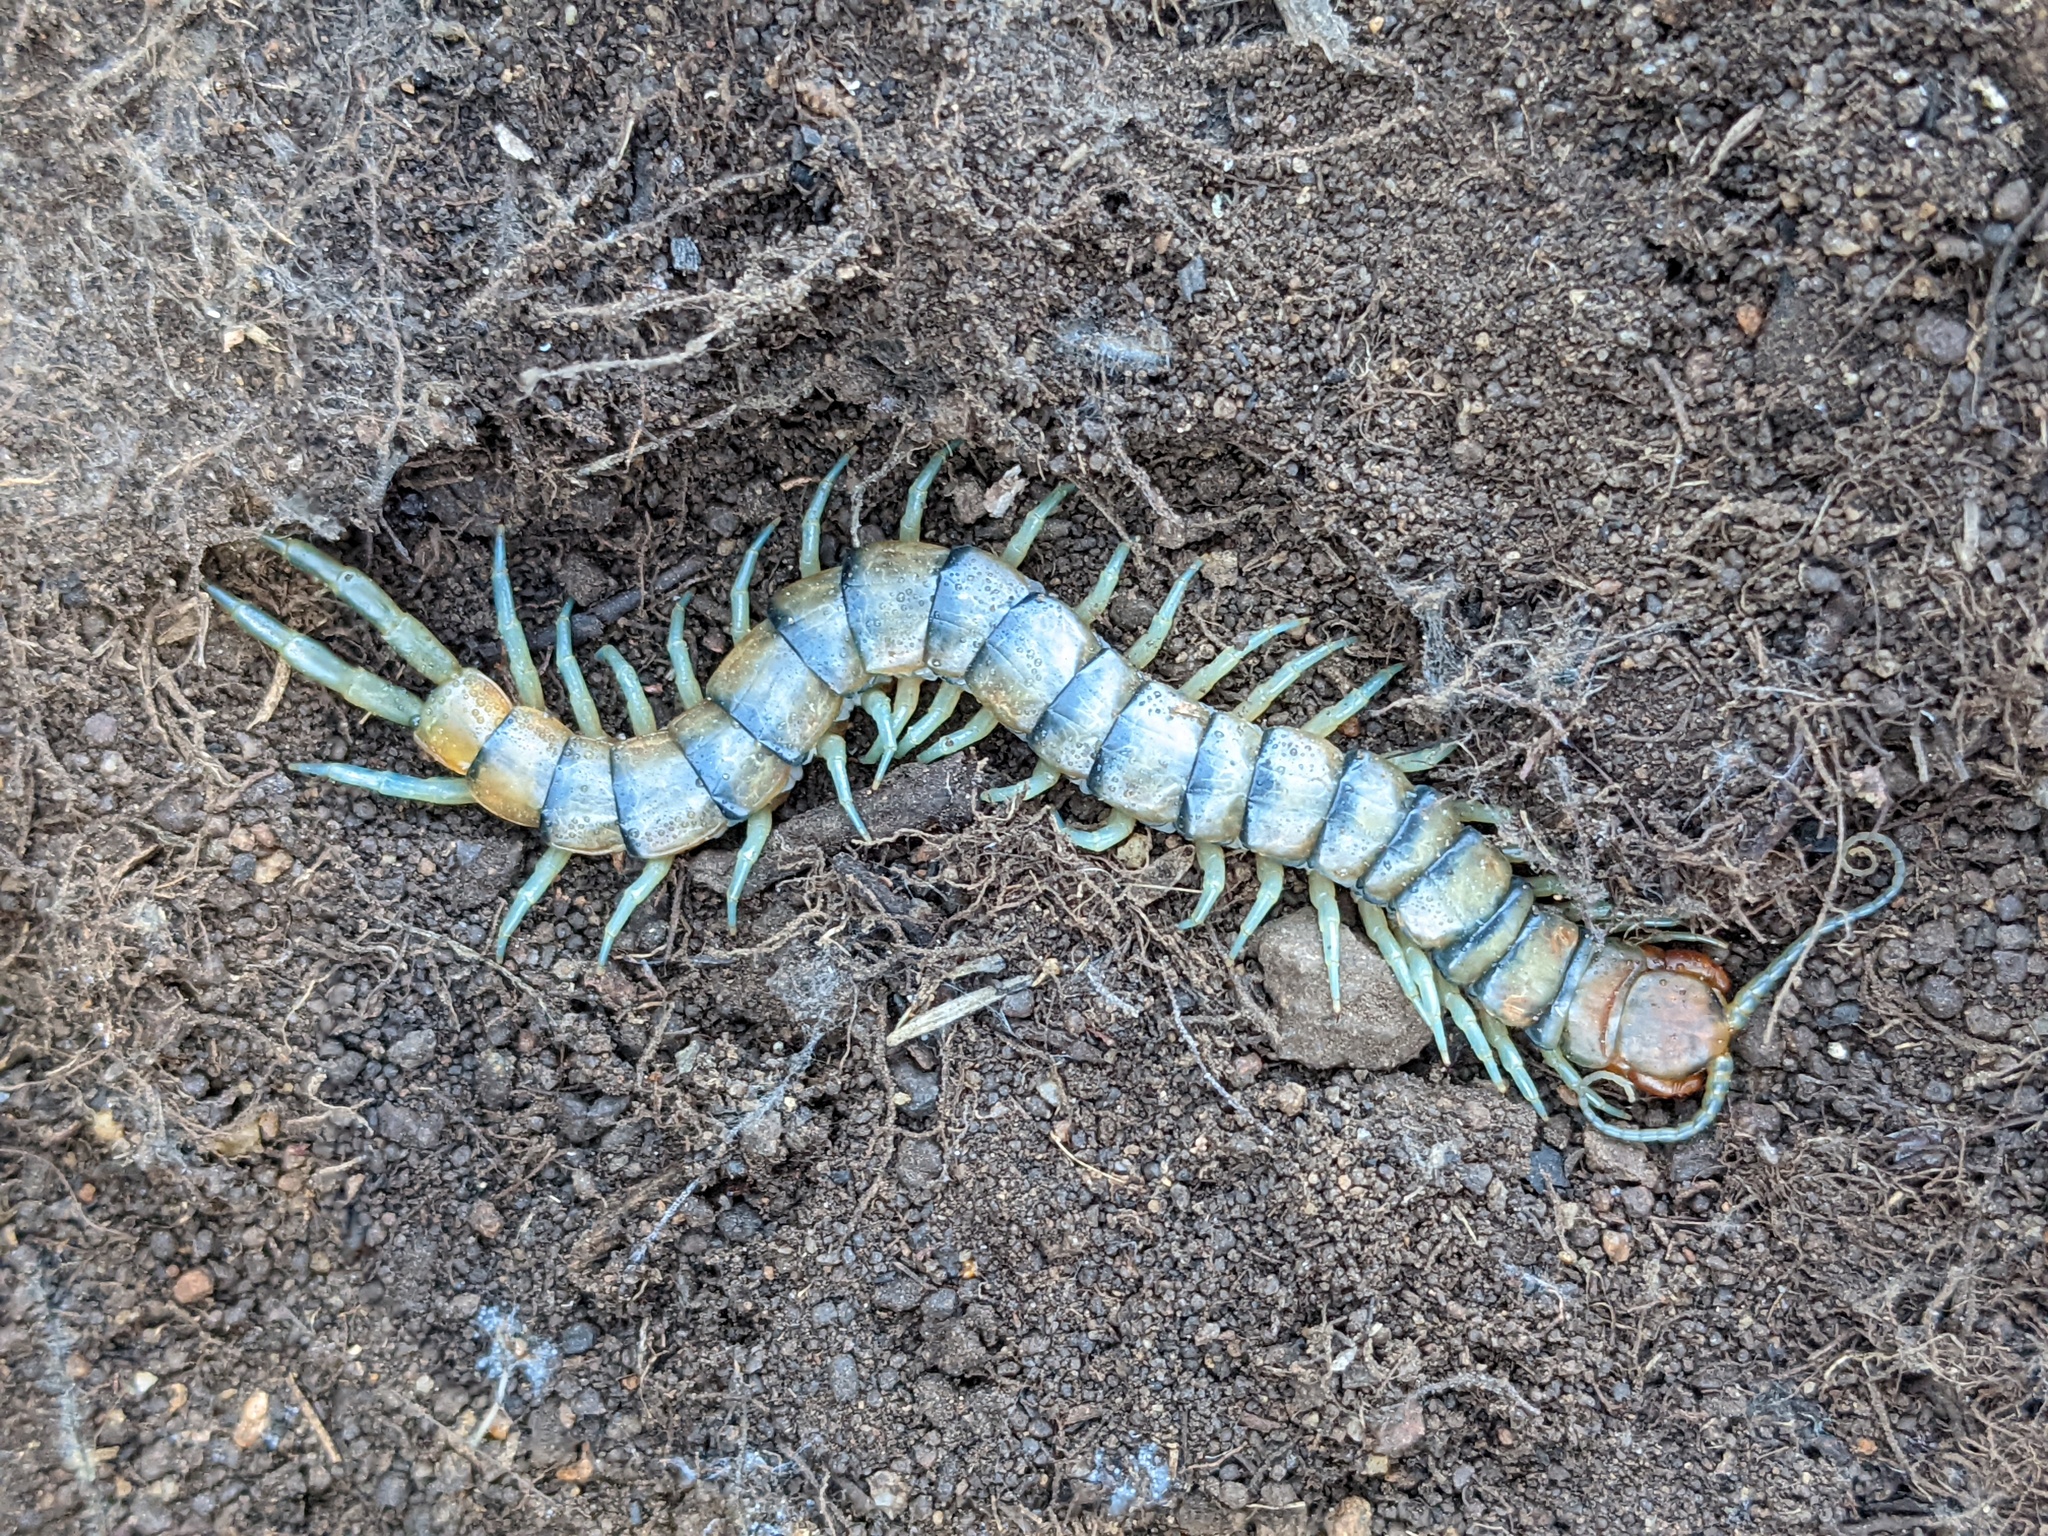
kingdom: Animalia
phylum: Arthropoda
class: Chilopoda
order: Scolopendromorpha
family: Scolopendridae
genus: Scolopendra
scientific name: Scolopendra polymorpha
